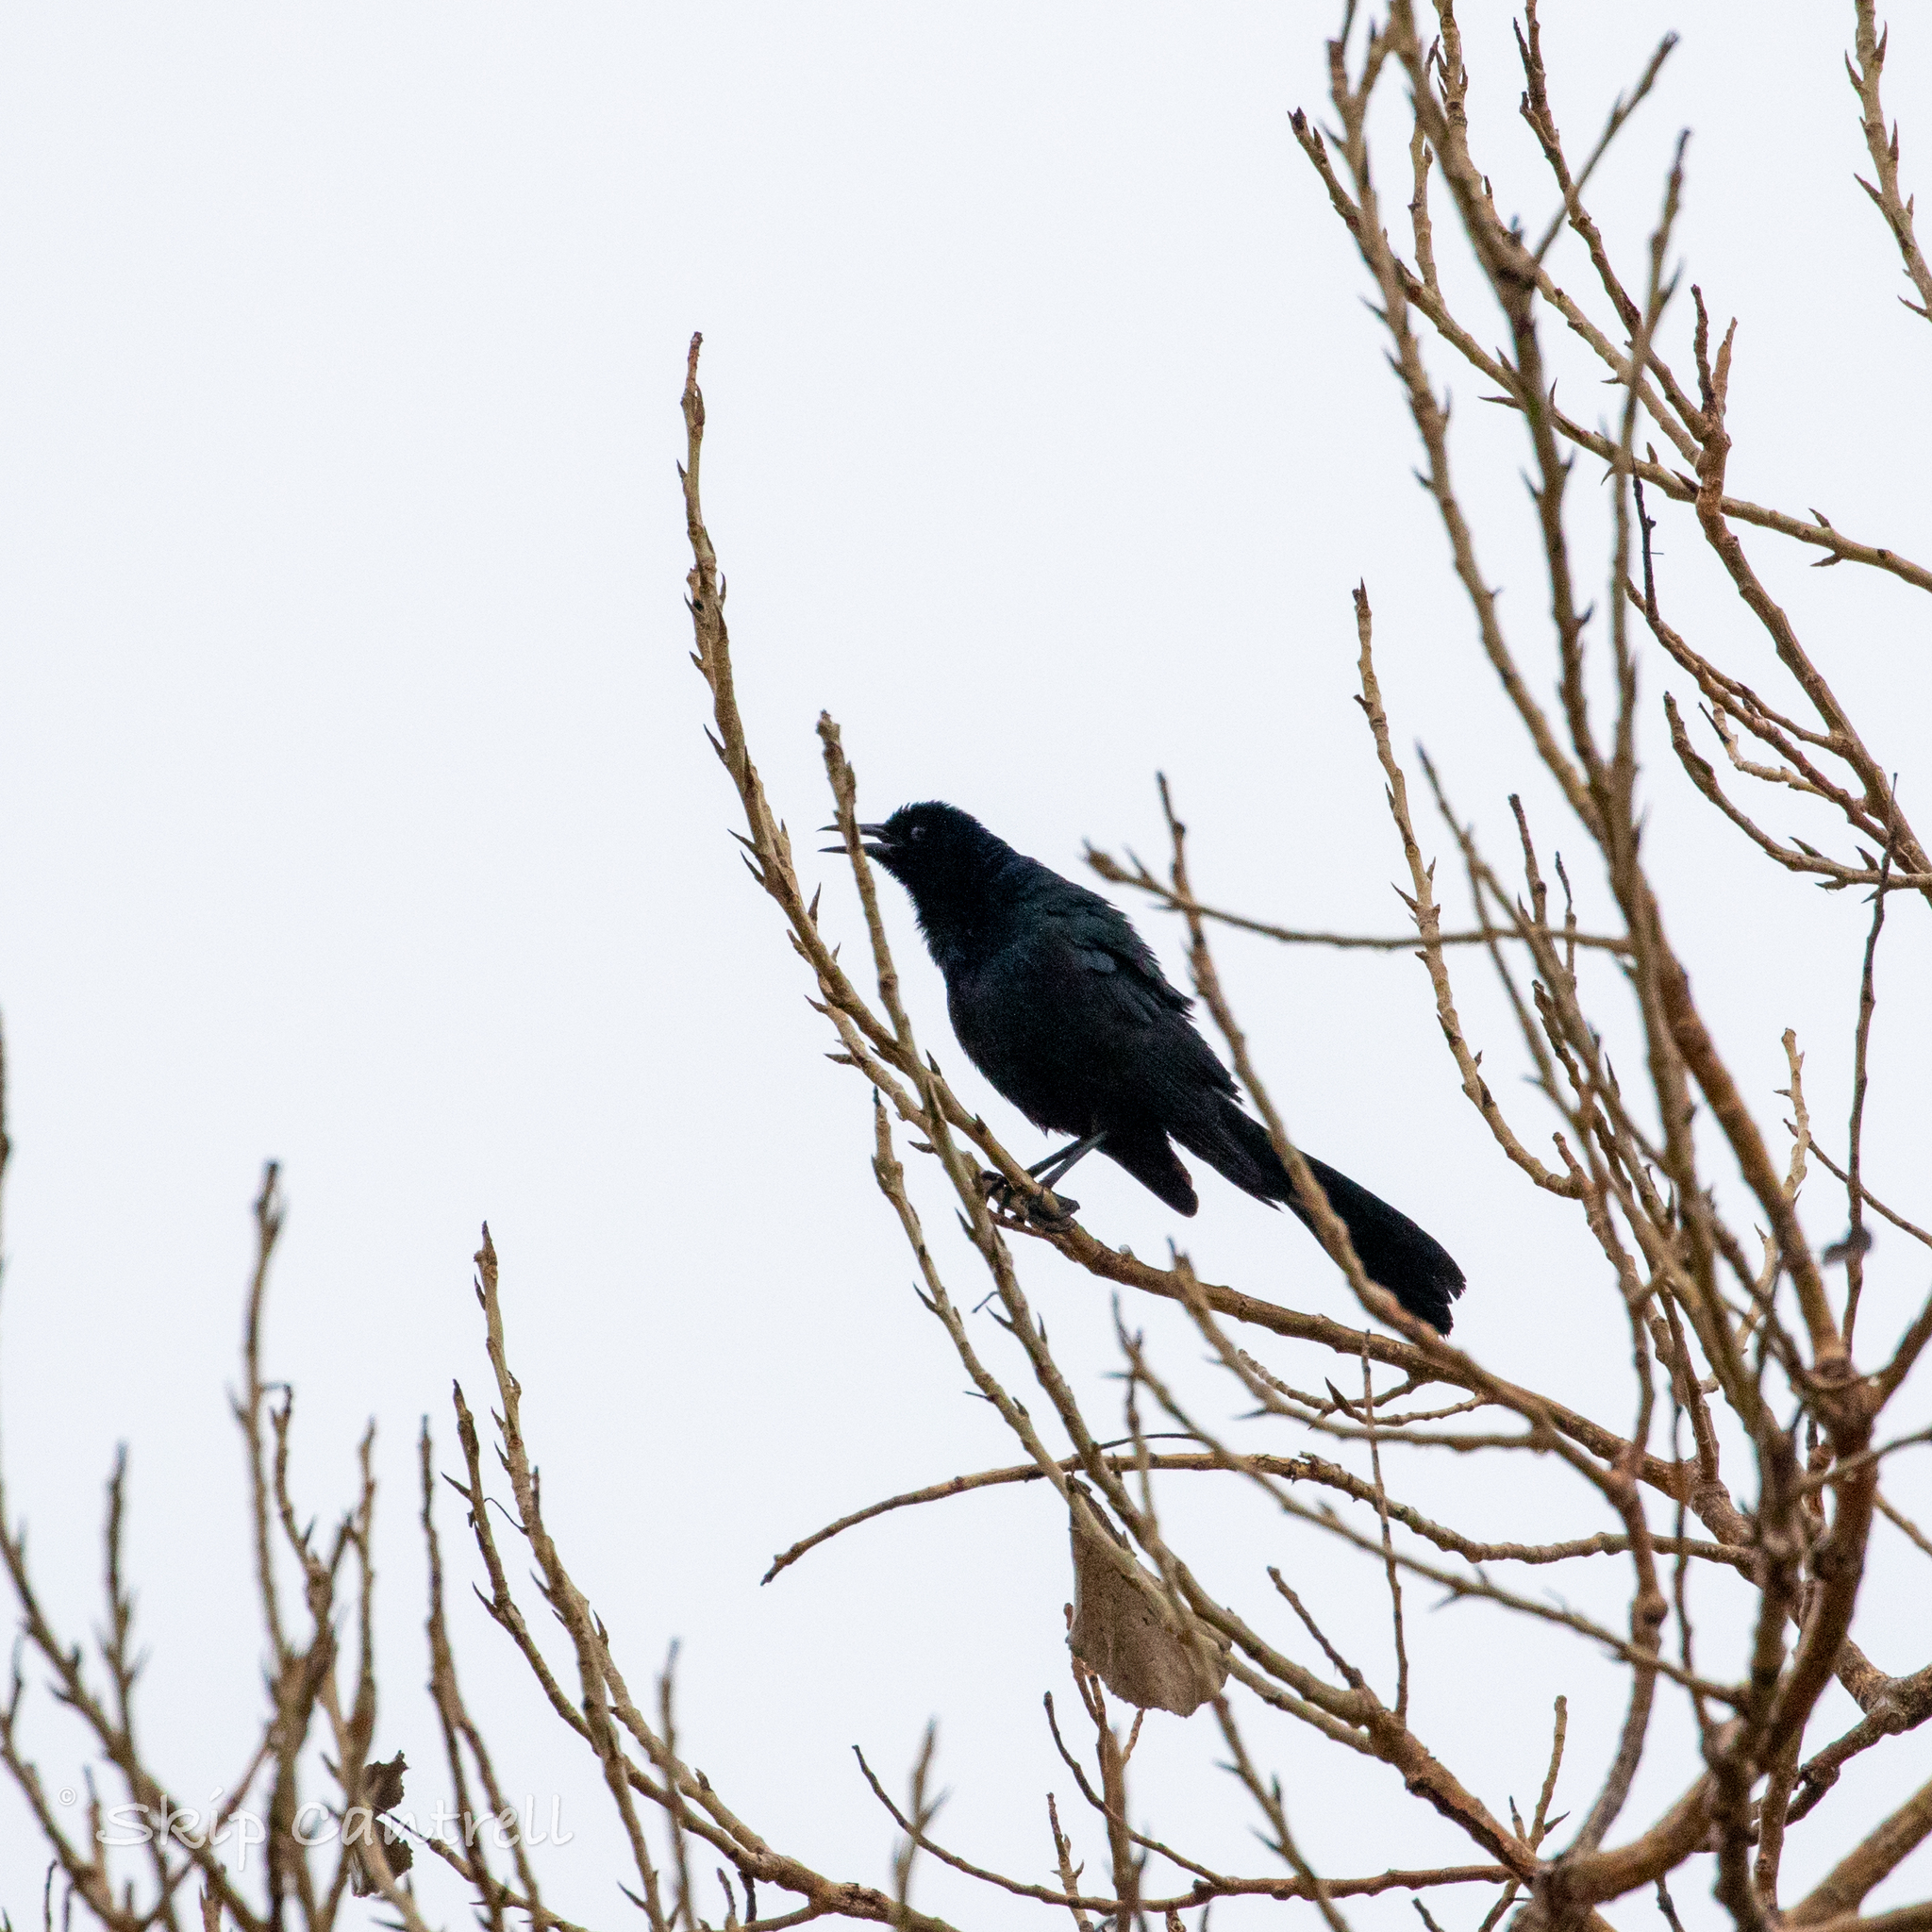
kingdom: Animalia
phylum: Chordata
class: Aves
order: Passeriformes
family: Icteridae
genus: Quiscalus
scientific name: Quiscalus major
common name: Boat-tailed grackle
